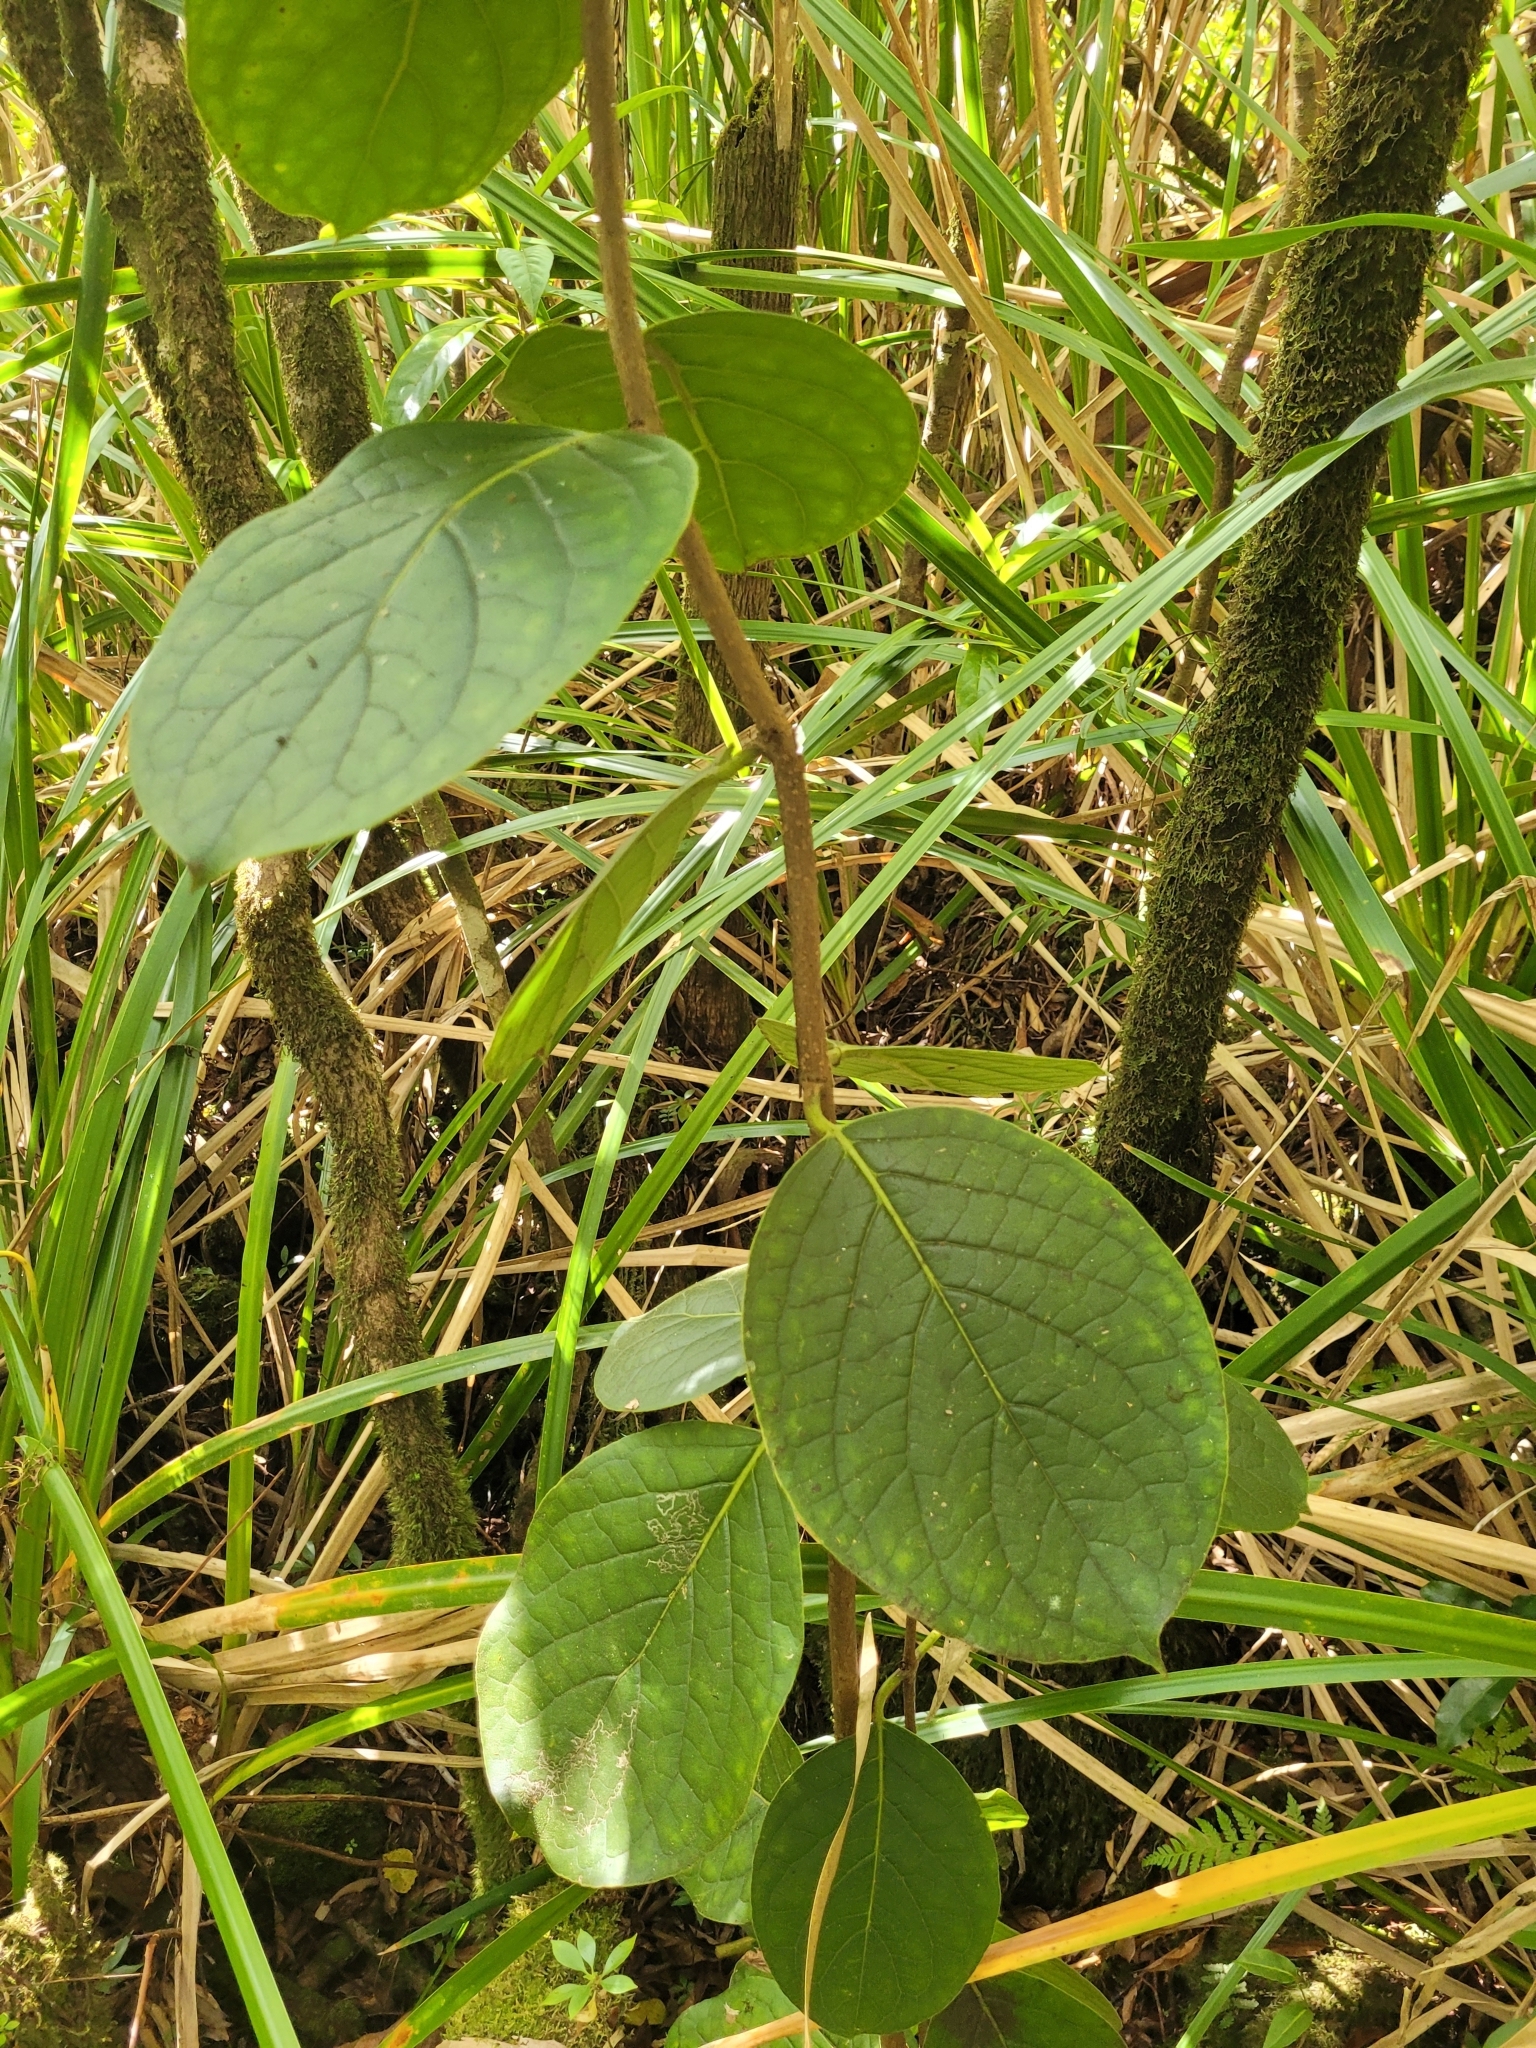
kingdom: Plantae
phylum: Tracheophyta
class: Magnoliopsida
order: Laurales
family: Monimiaceae
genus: Monimia
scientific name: Monimia rotundifolia
